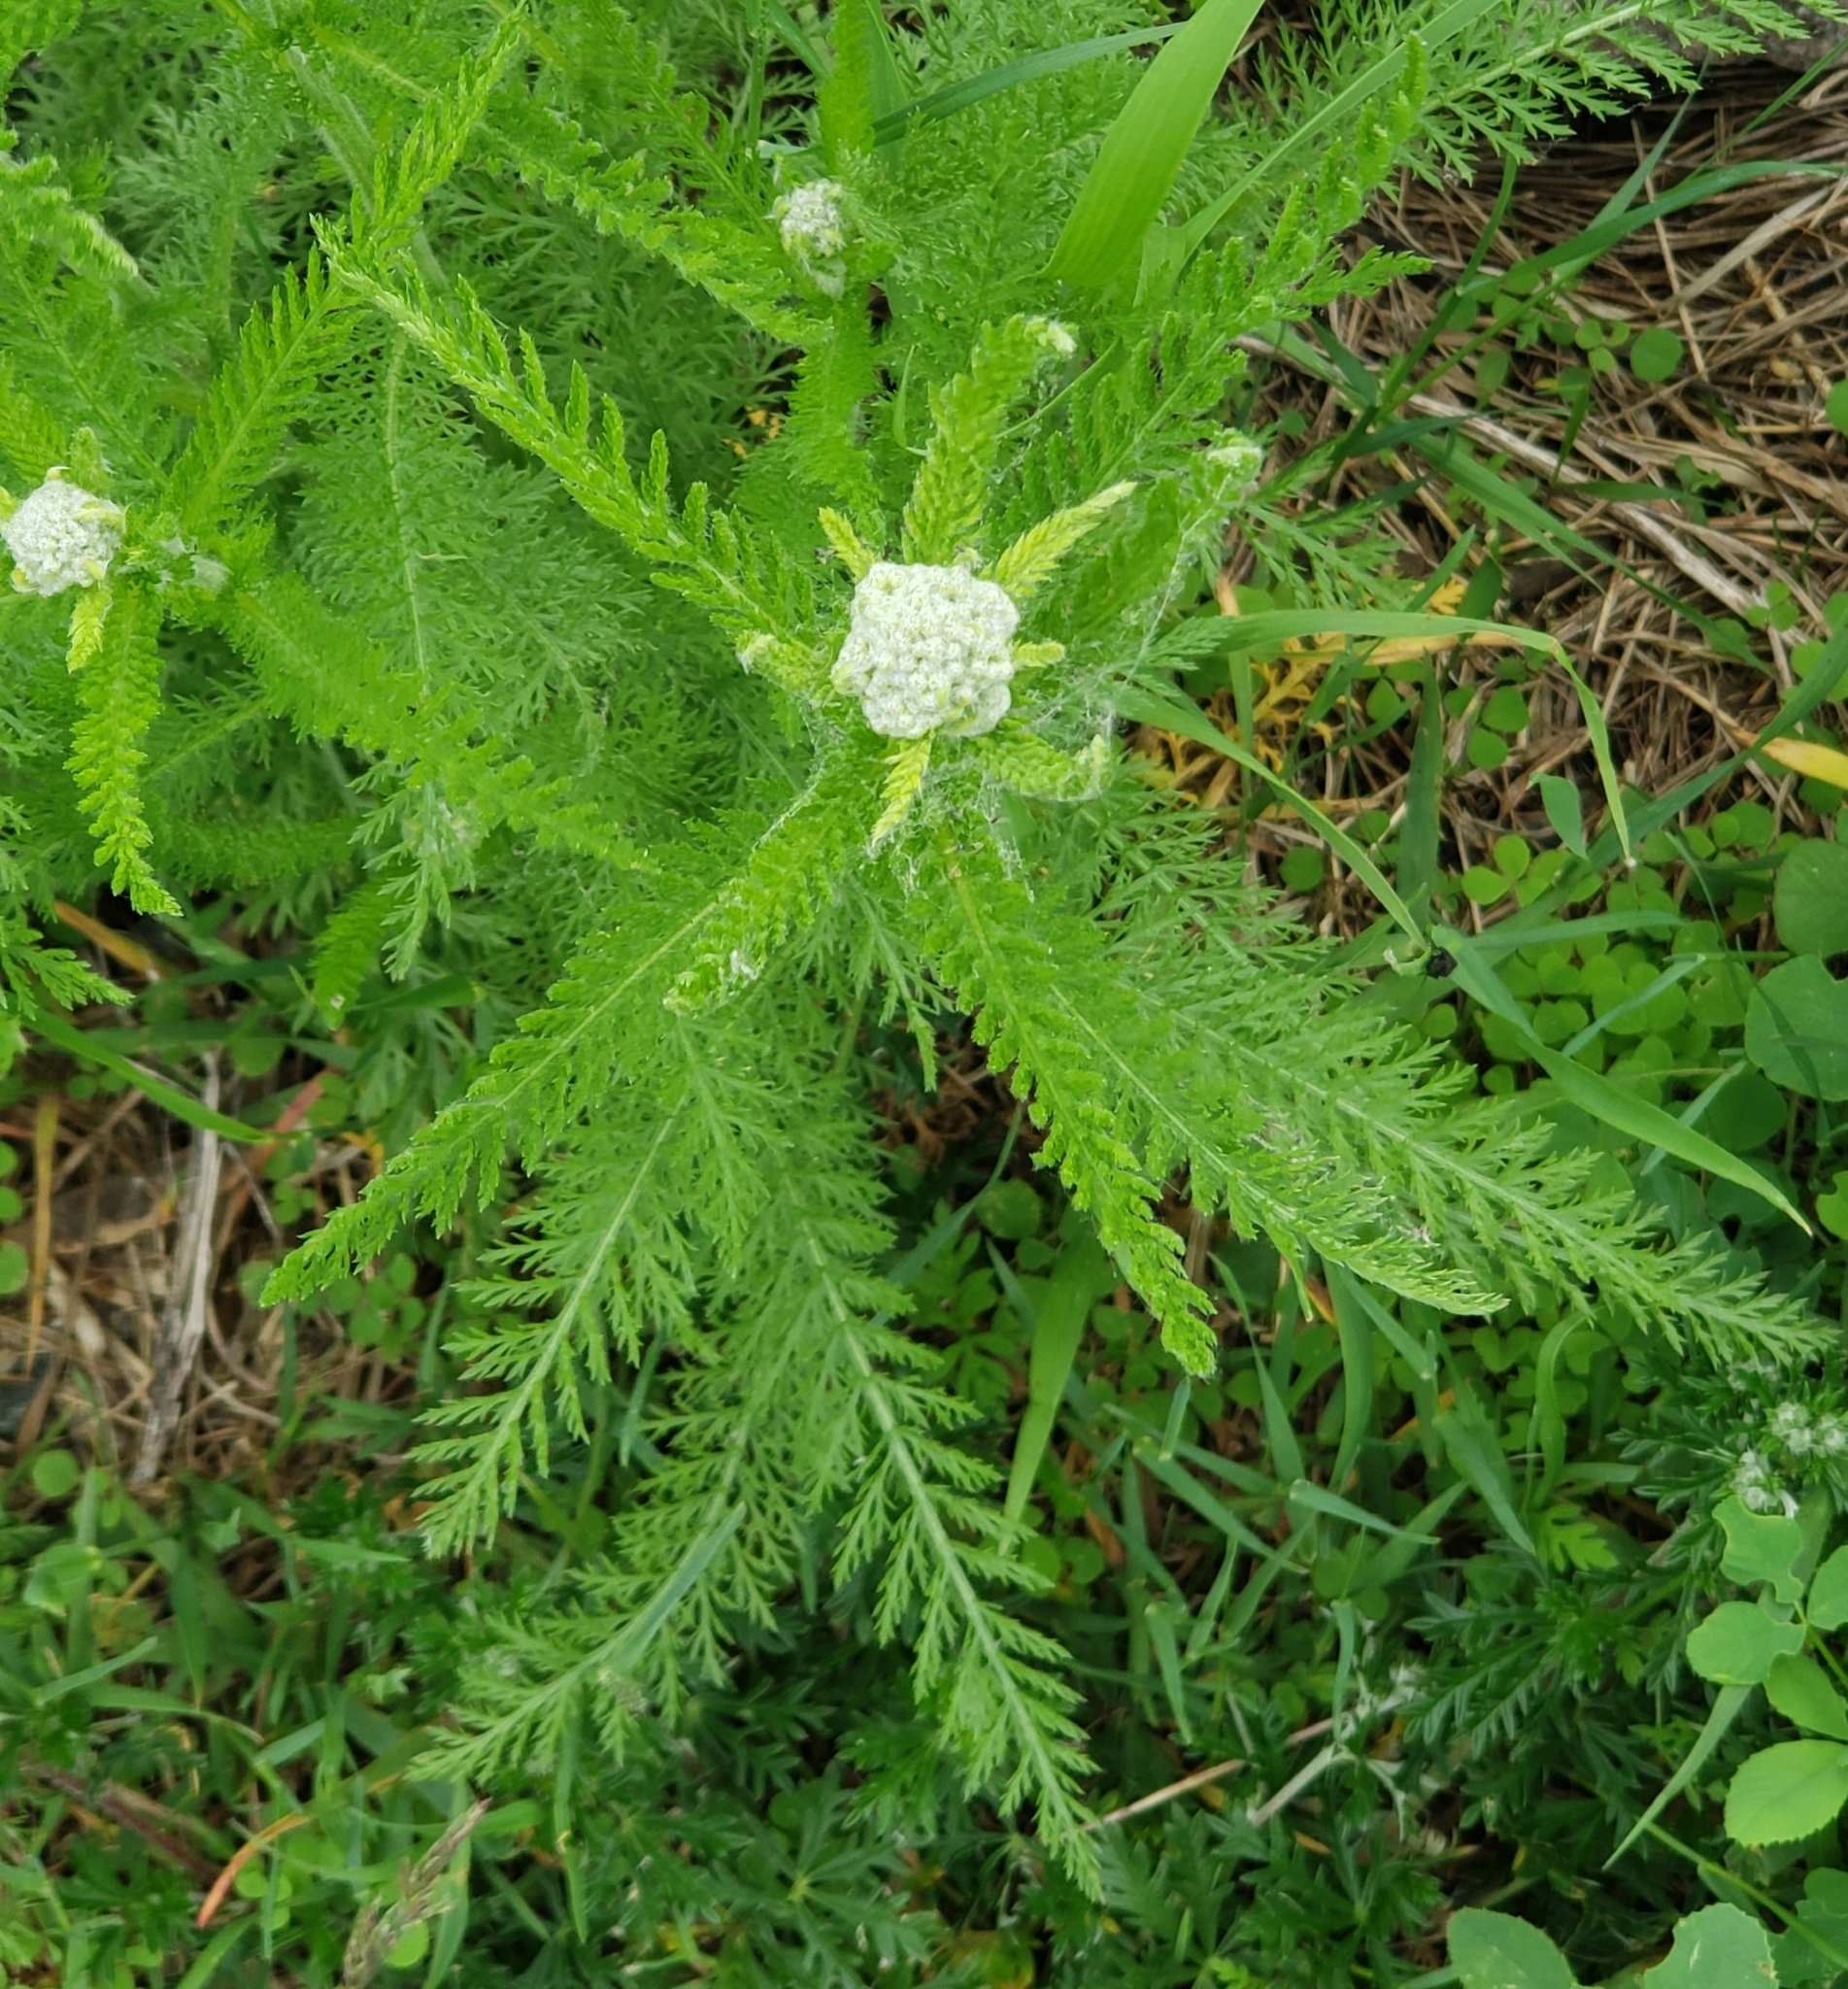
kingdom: Plantae
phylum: Tracheophyta
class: Magnoliopsida
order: Asterales
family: Asteraceae
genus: Achillea
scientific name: Achillea millefolium
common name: Yarrow
